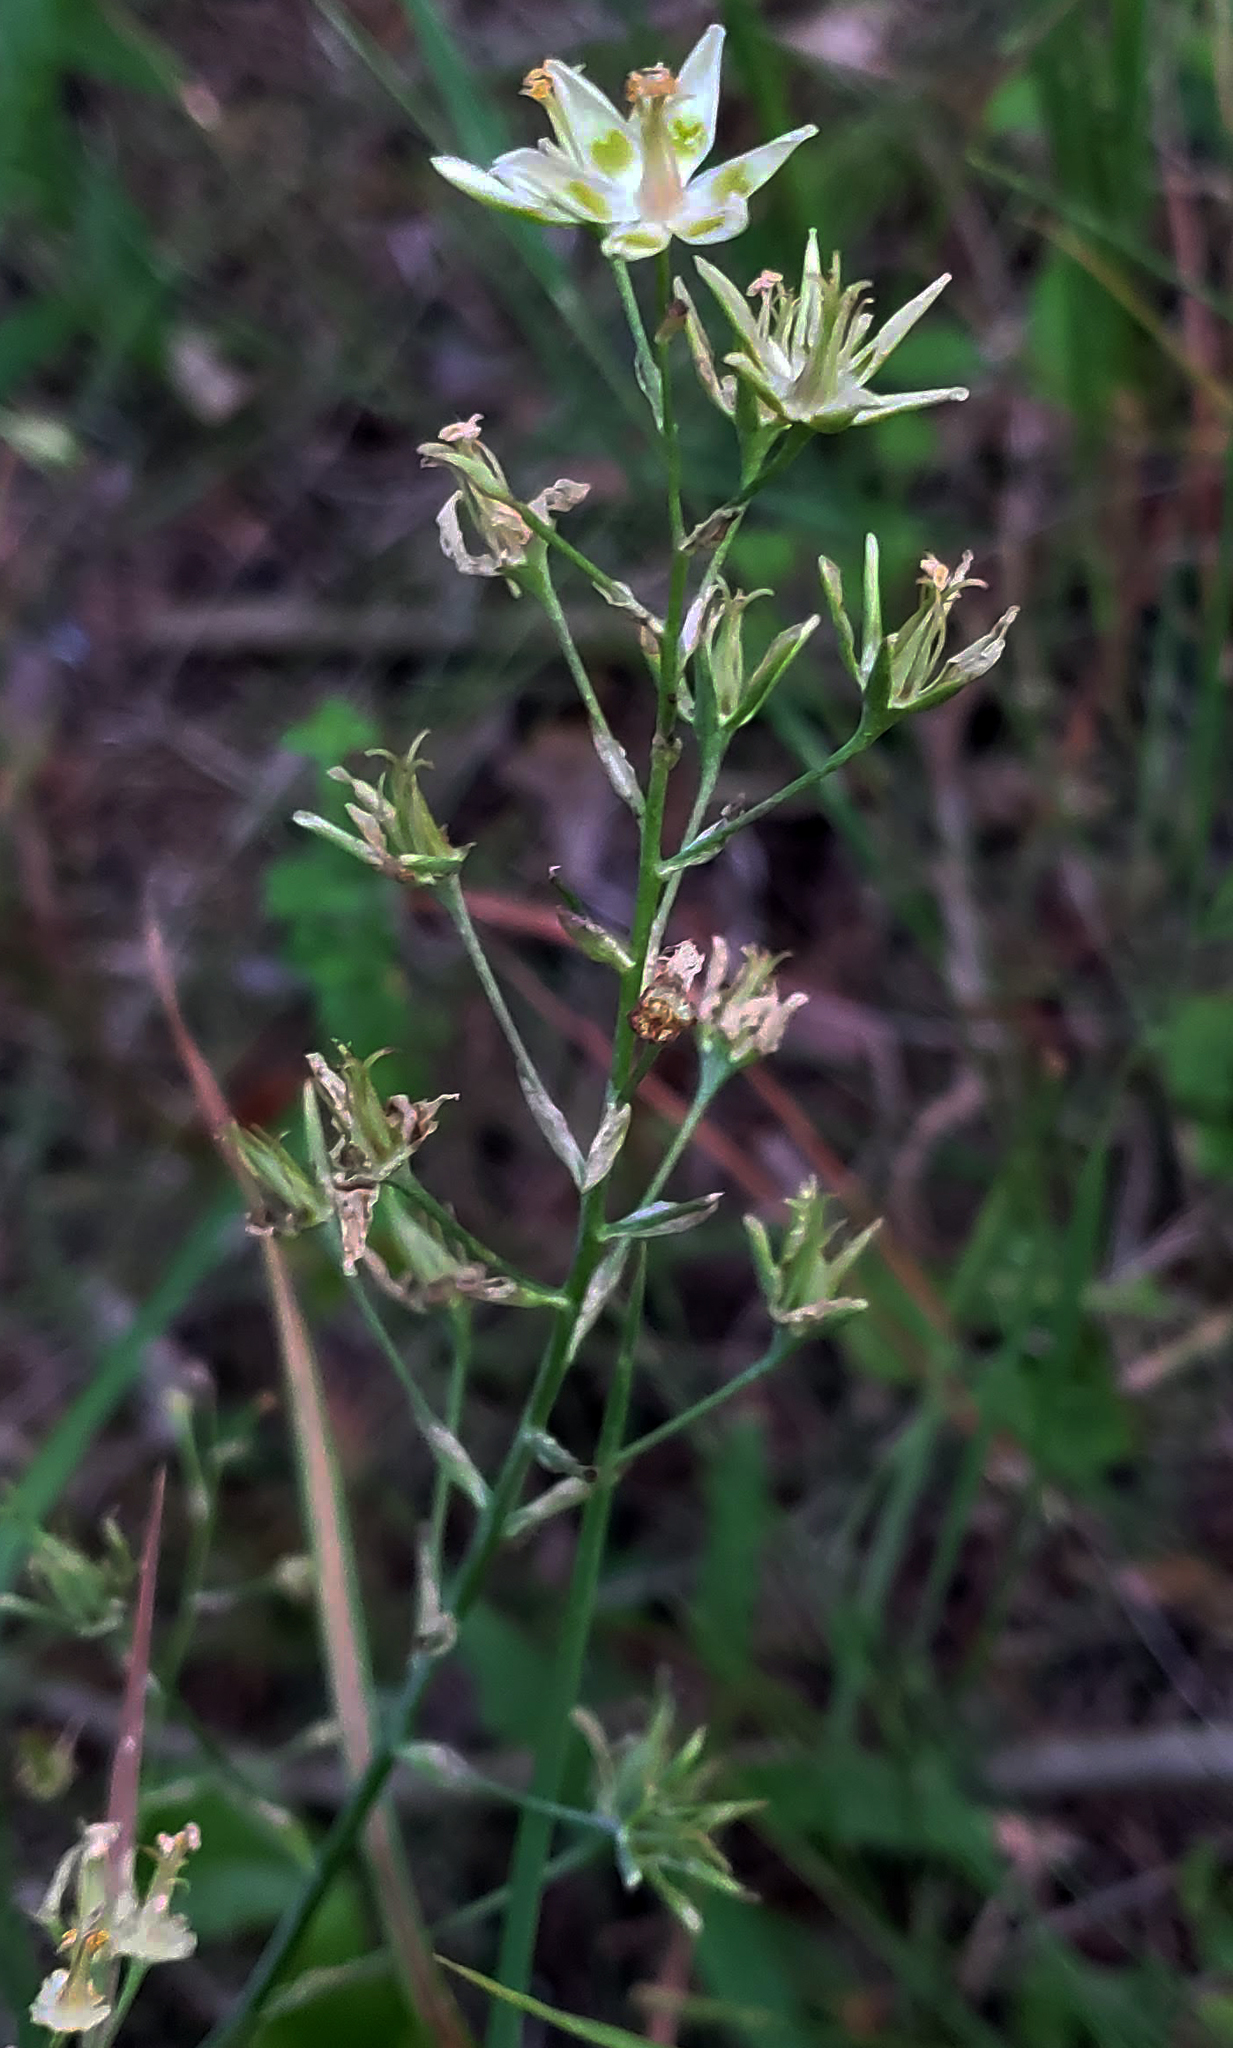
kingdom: Plantae
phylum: Tracheophyta
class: Liliopsida
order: Liliales
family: Melanthiaceae
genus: Anticlea
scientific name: Anticlea elegans
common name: Mountain death camas
